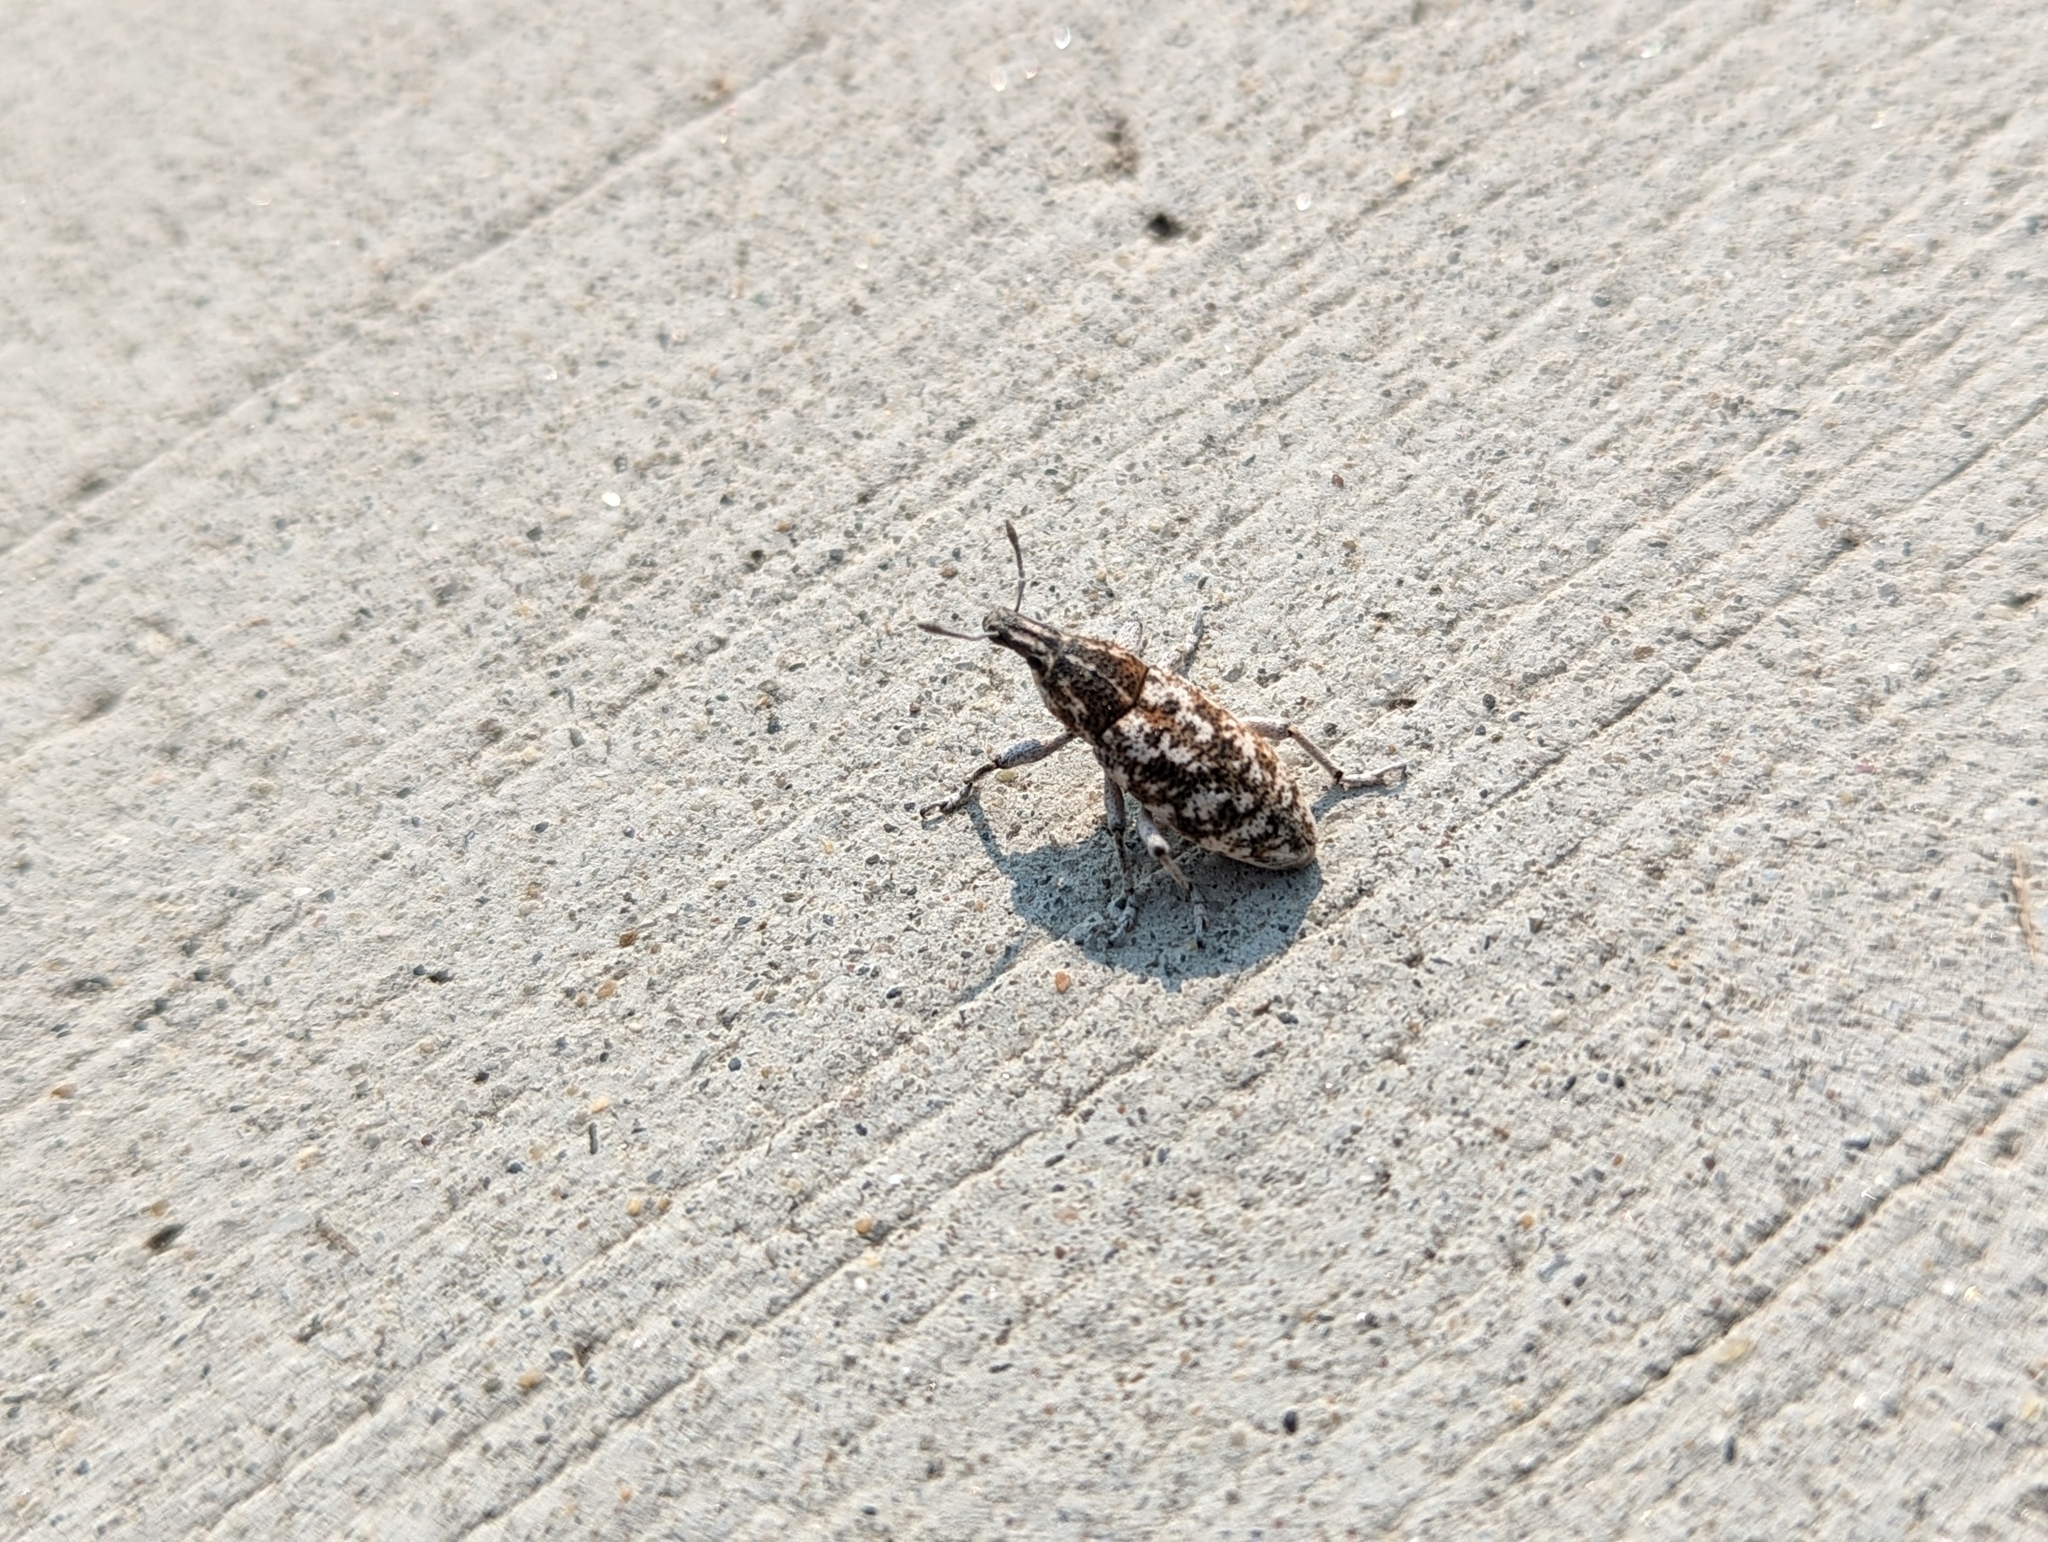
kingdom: Animalia
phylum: Arthropoda
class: Insecta
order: Coleoptera
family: Curculionidae
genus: Cleonus
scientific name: Cleonus achates
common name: Root weevil
